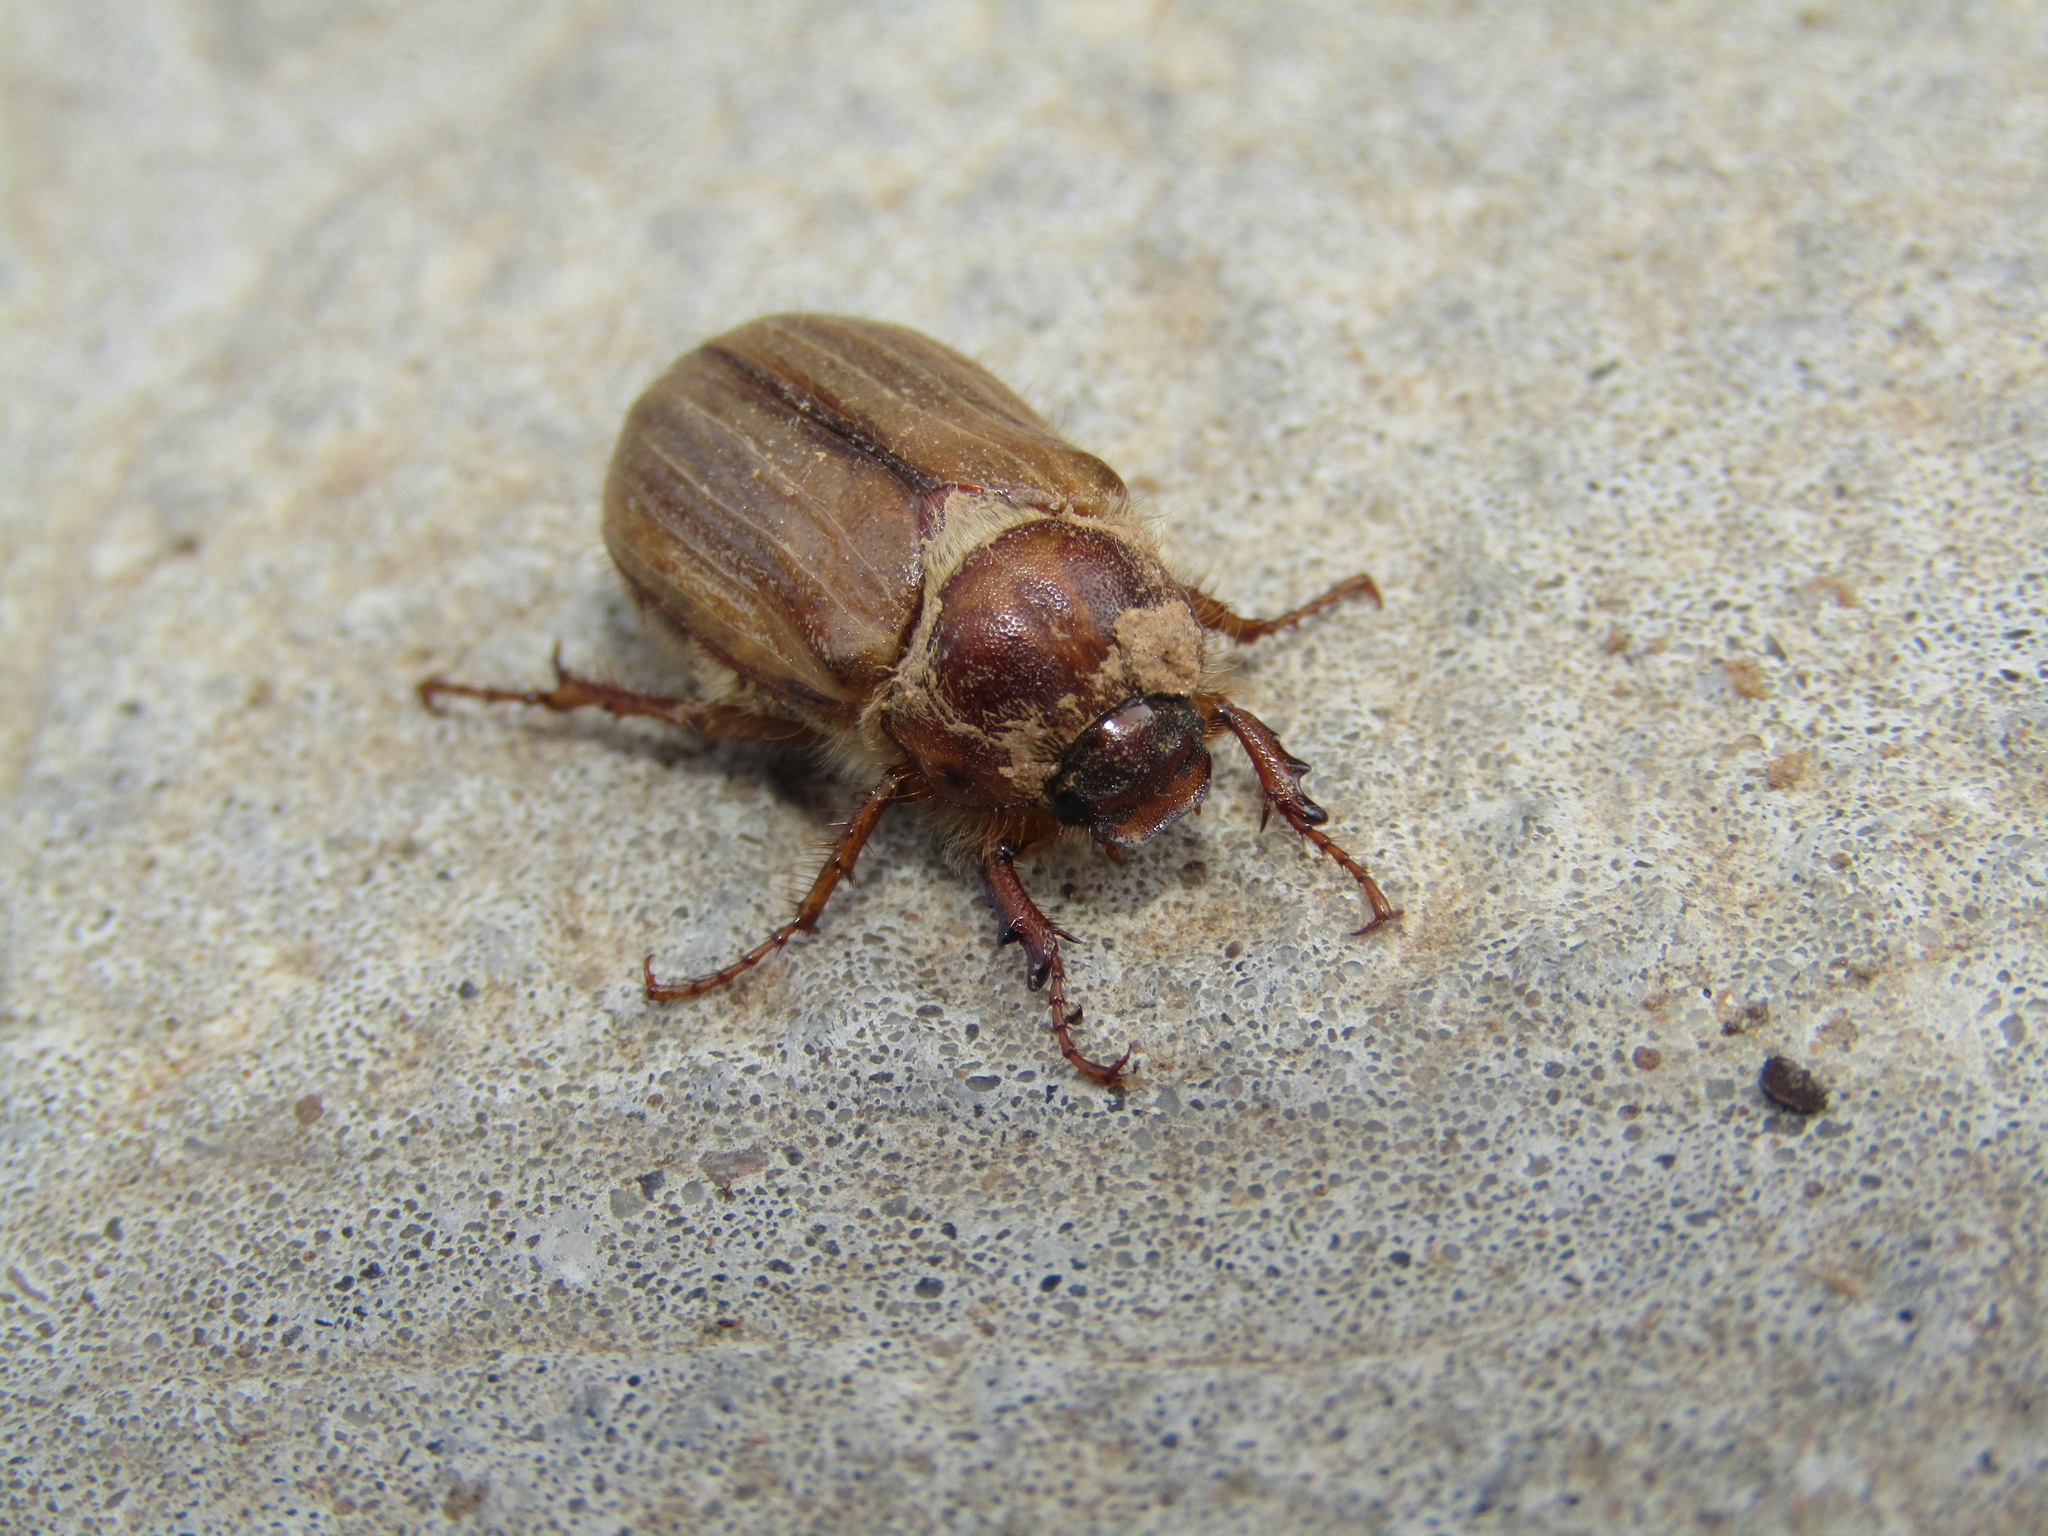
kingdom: Animalia
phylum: Arthropoda
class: Insecta
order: Coleoptera
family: Scarabaeidae
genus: Amphimallon
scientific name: Amphimallon solstitiale
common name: Summer chafer
